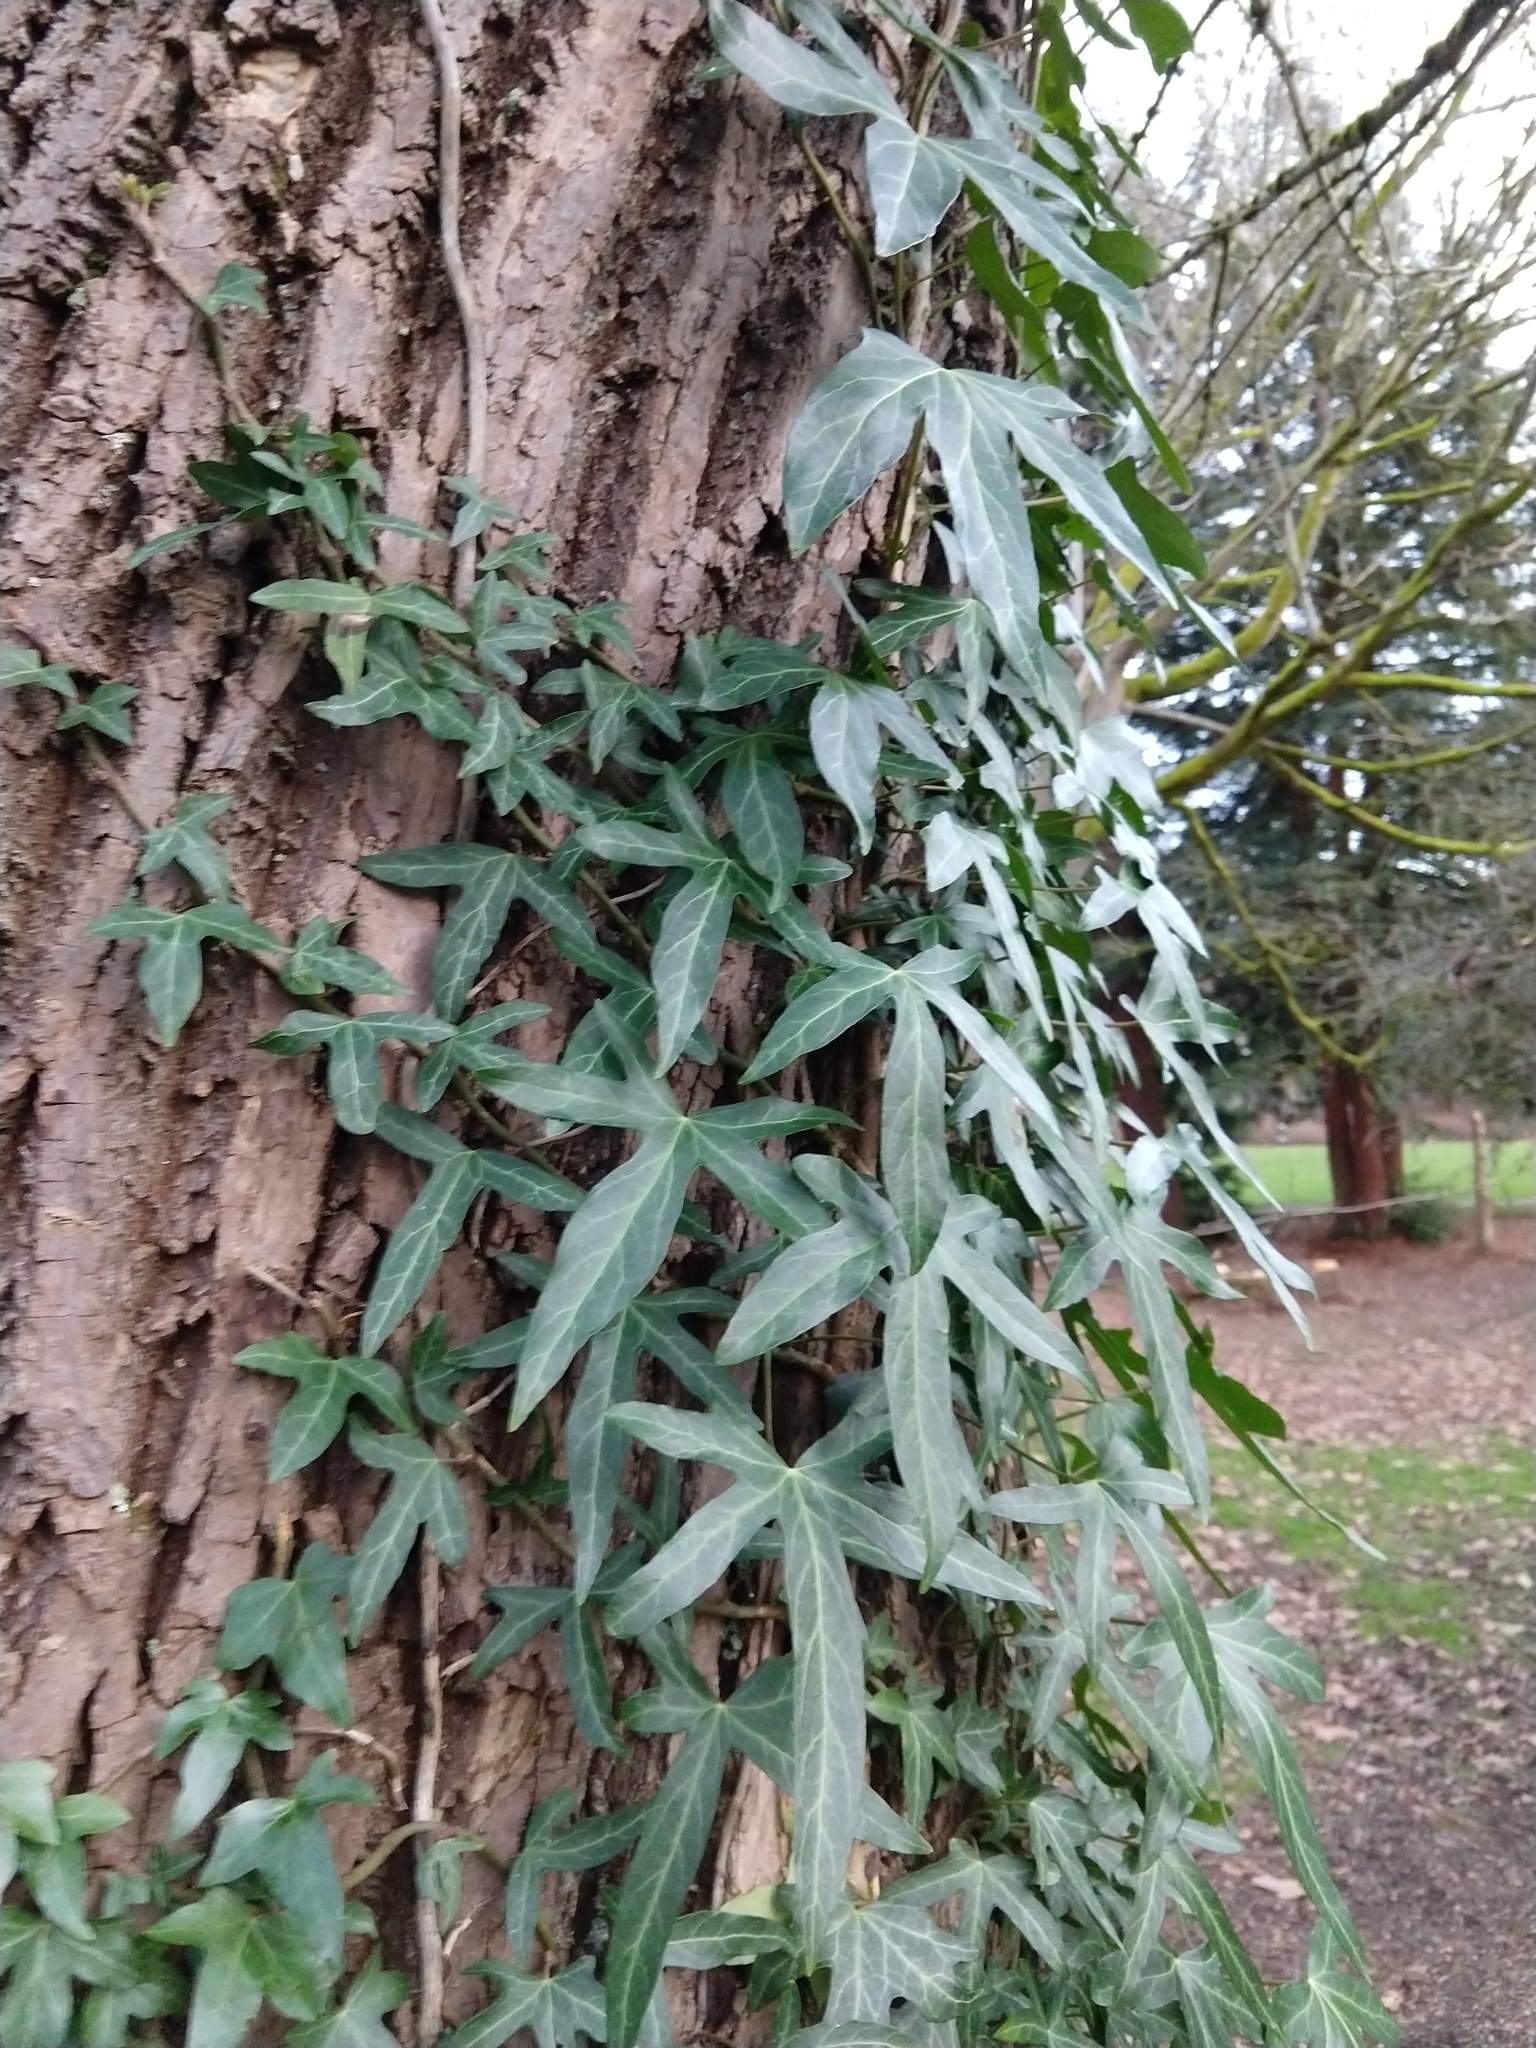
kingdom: Plantae
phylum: Tracheophyta
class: Magnoliopsida
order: Apiales
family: Araliaceae
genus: Hedera
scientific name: Hedera helix
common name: Ivy
